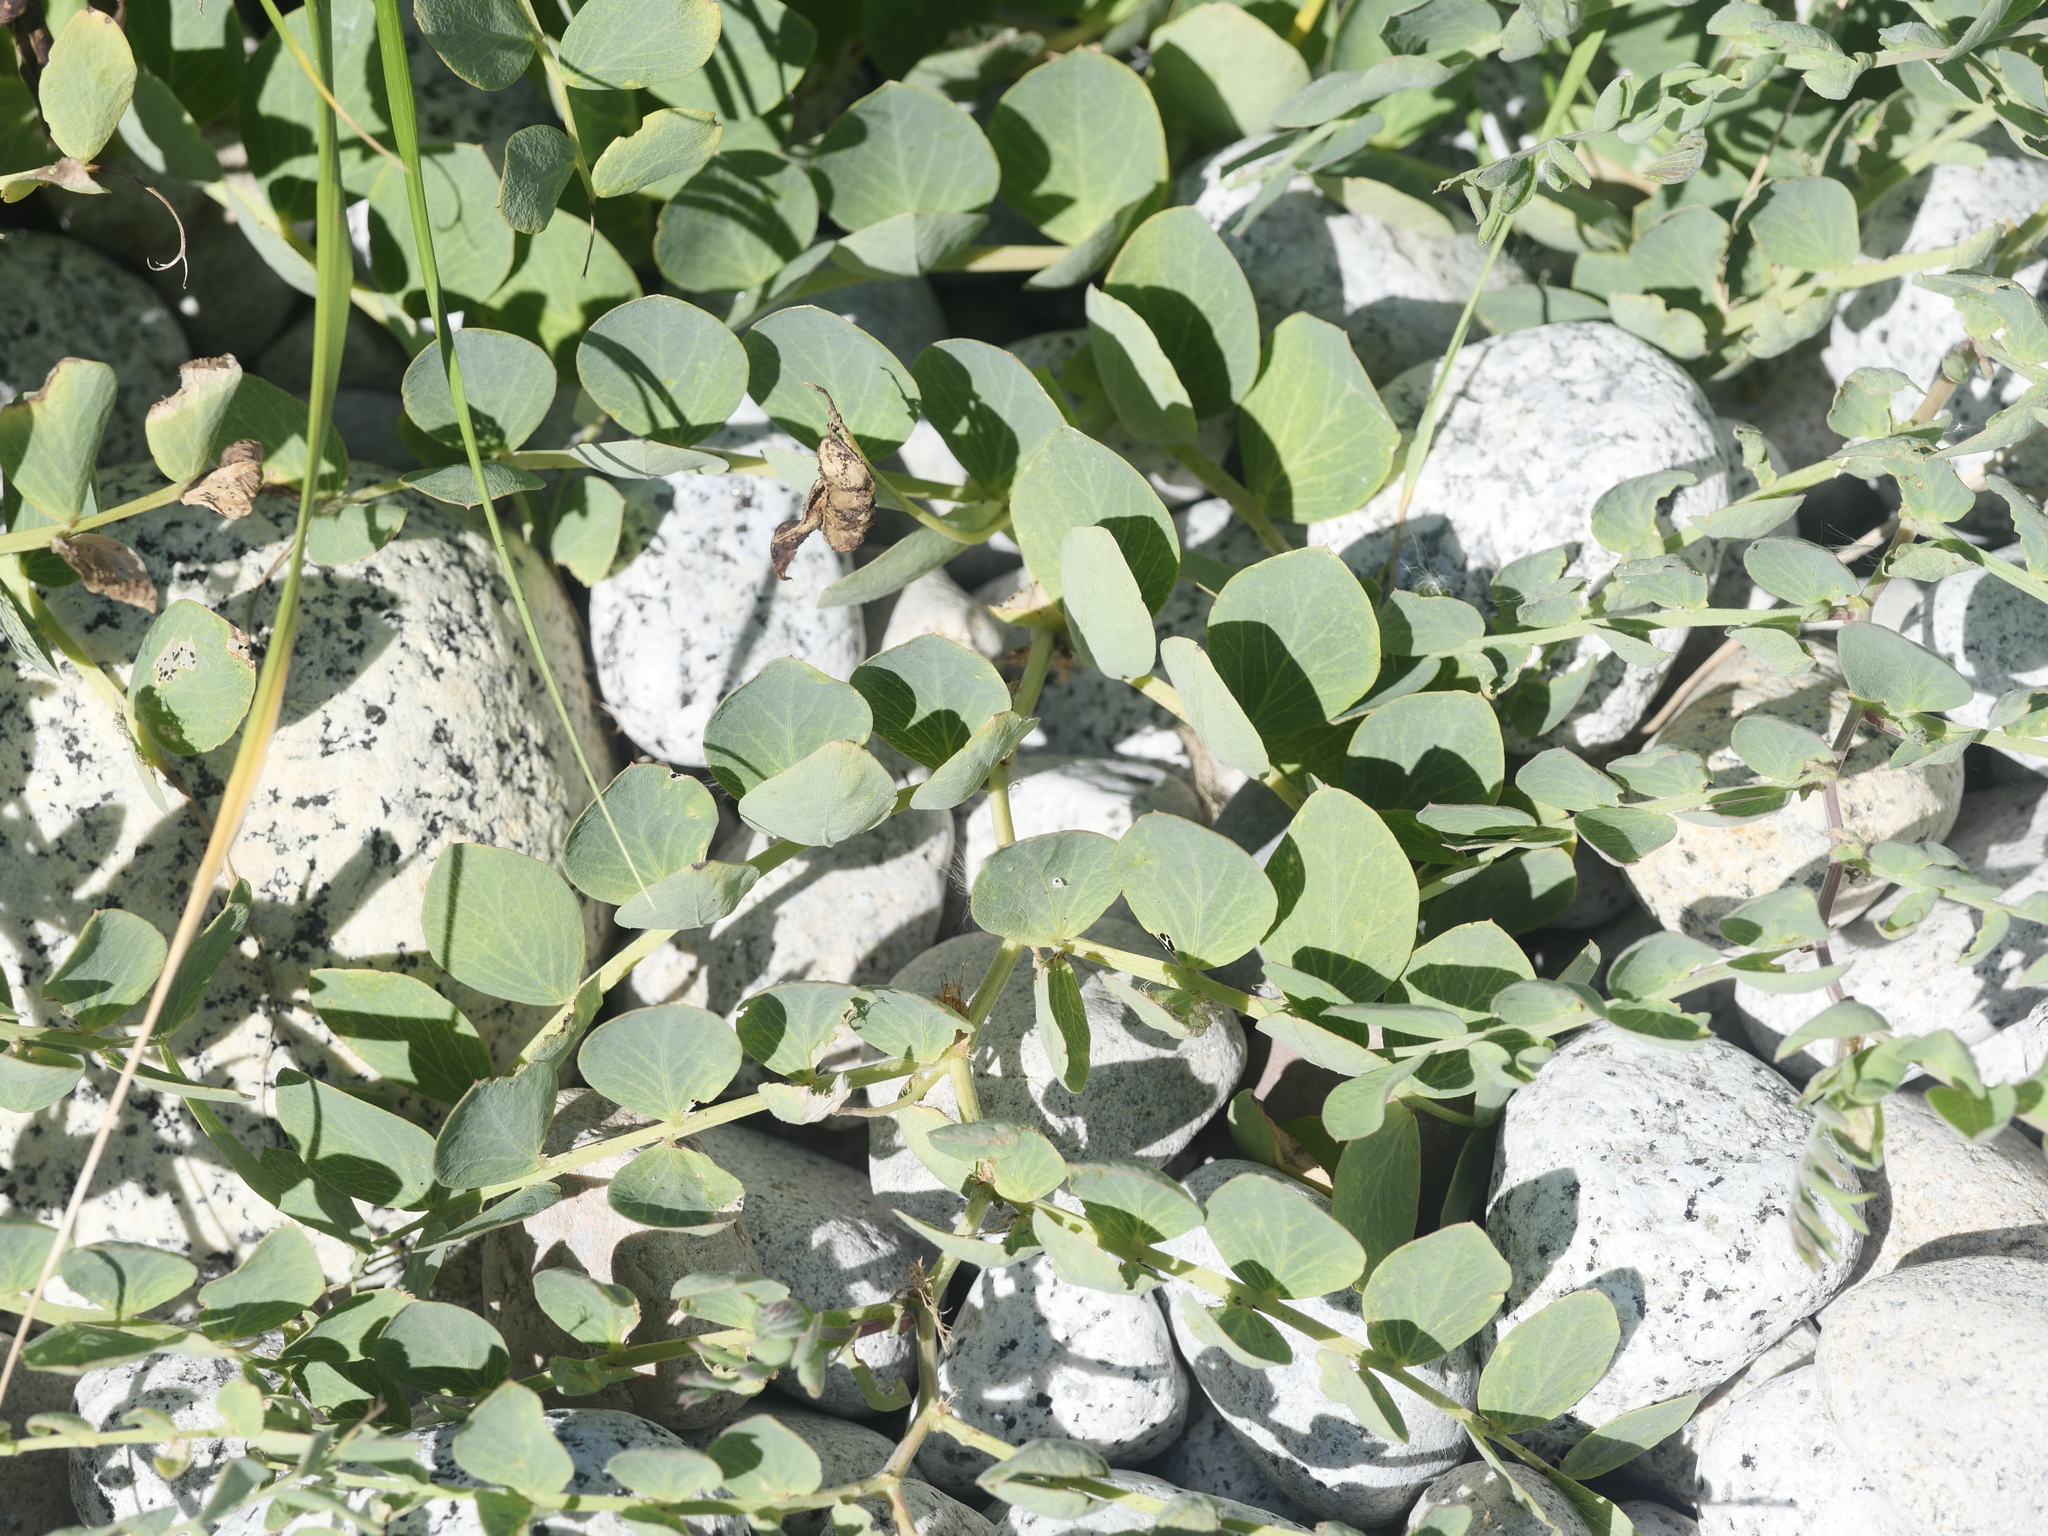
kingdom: Plantae
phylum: Tracheophyta
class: Magnoliopsida
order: Fabales
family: Fabaceae
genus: Lathyrus
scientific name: Lathyrus japonicus
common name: Sea pea
